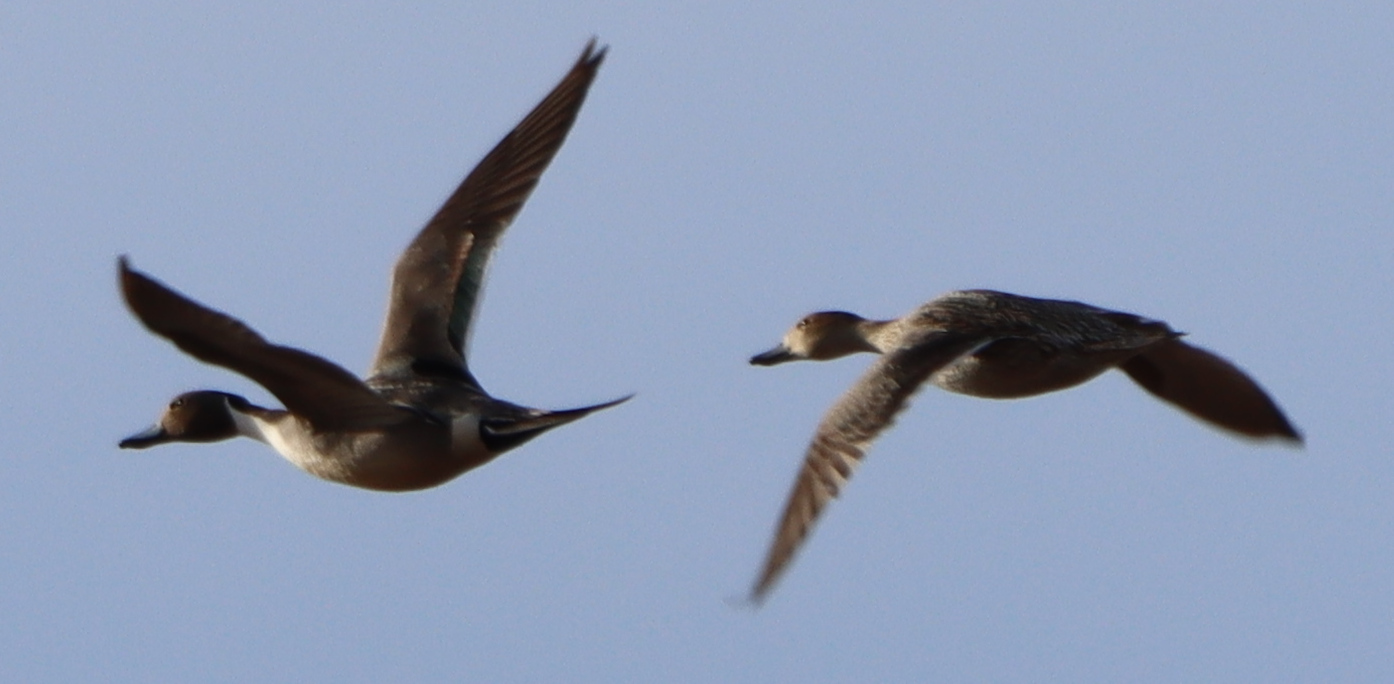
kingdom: Animalia
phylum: Chordata
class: Aves
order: Anseriformes
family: Anatidae
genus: Anas
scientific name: Anas acuta
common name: Northern pintail
